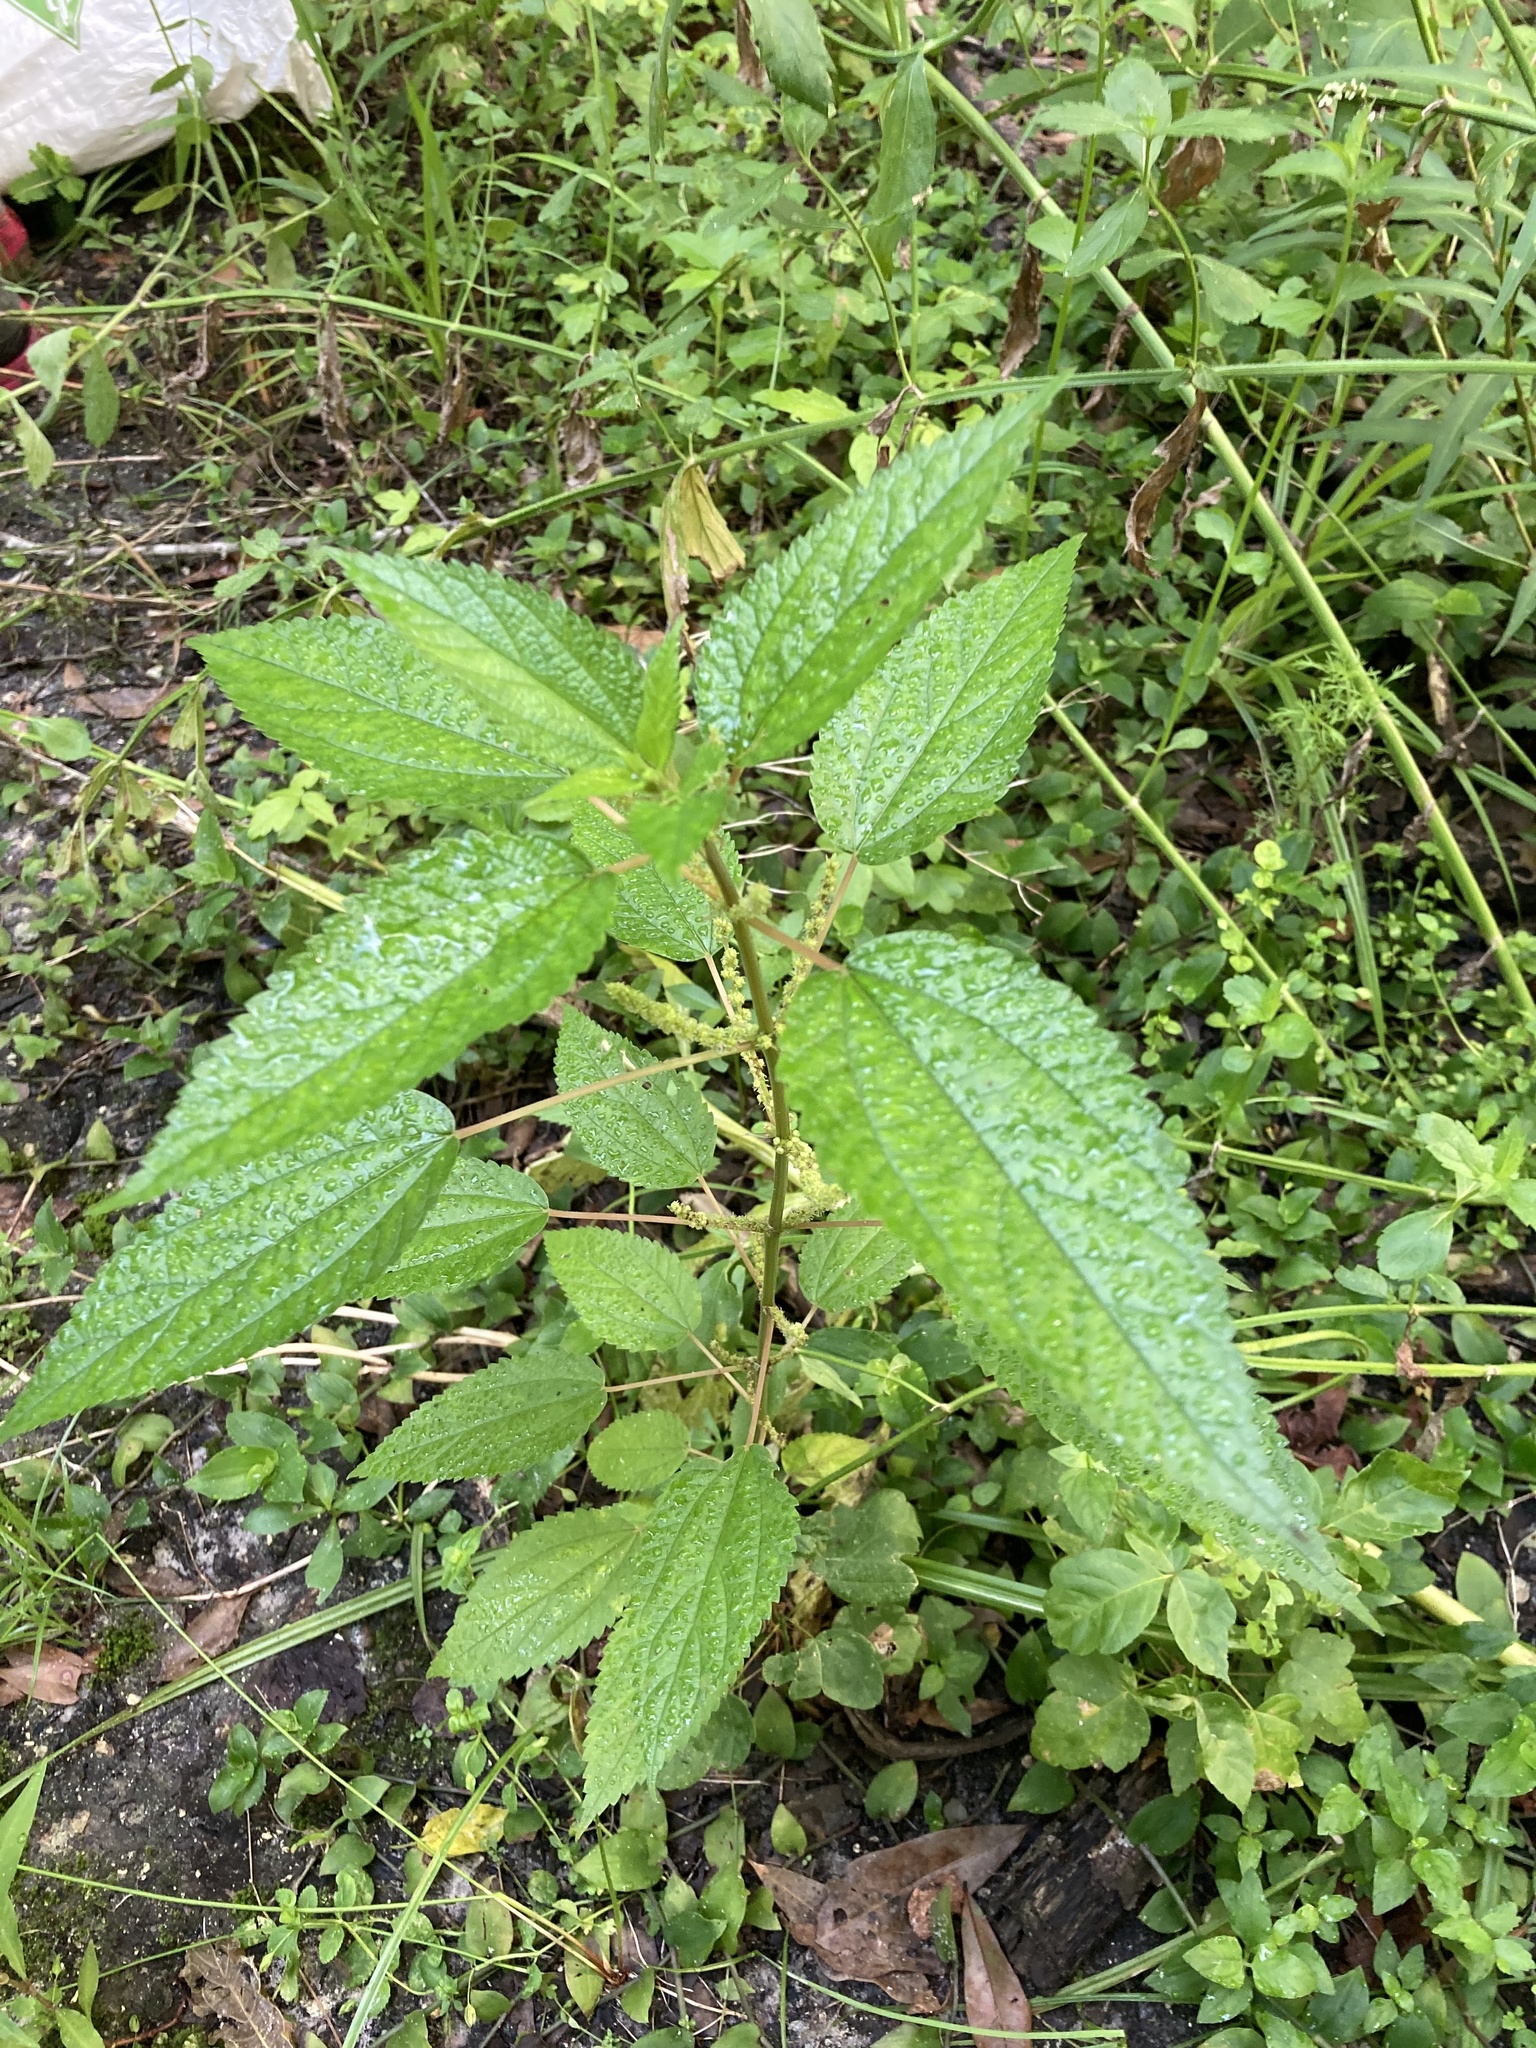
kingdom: Plantae
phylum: Tracheophyta
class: Magnoliopsida
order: Rosales
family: Urticaceae
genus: Boehmeria
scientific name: Boehmeria cylindrica
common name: Bog-hemp
